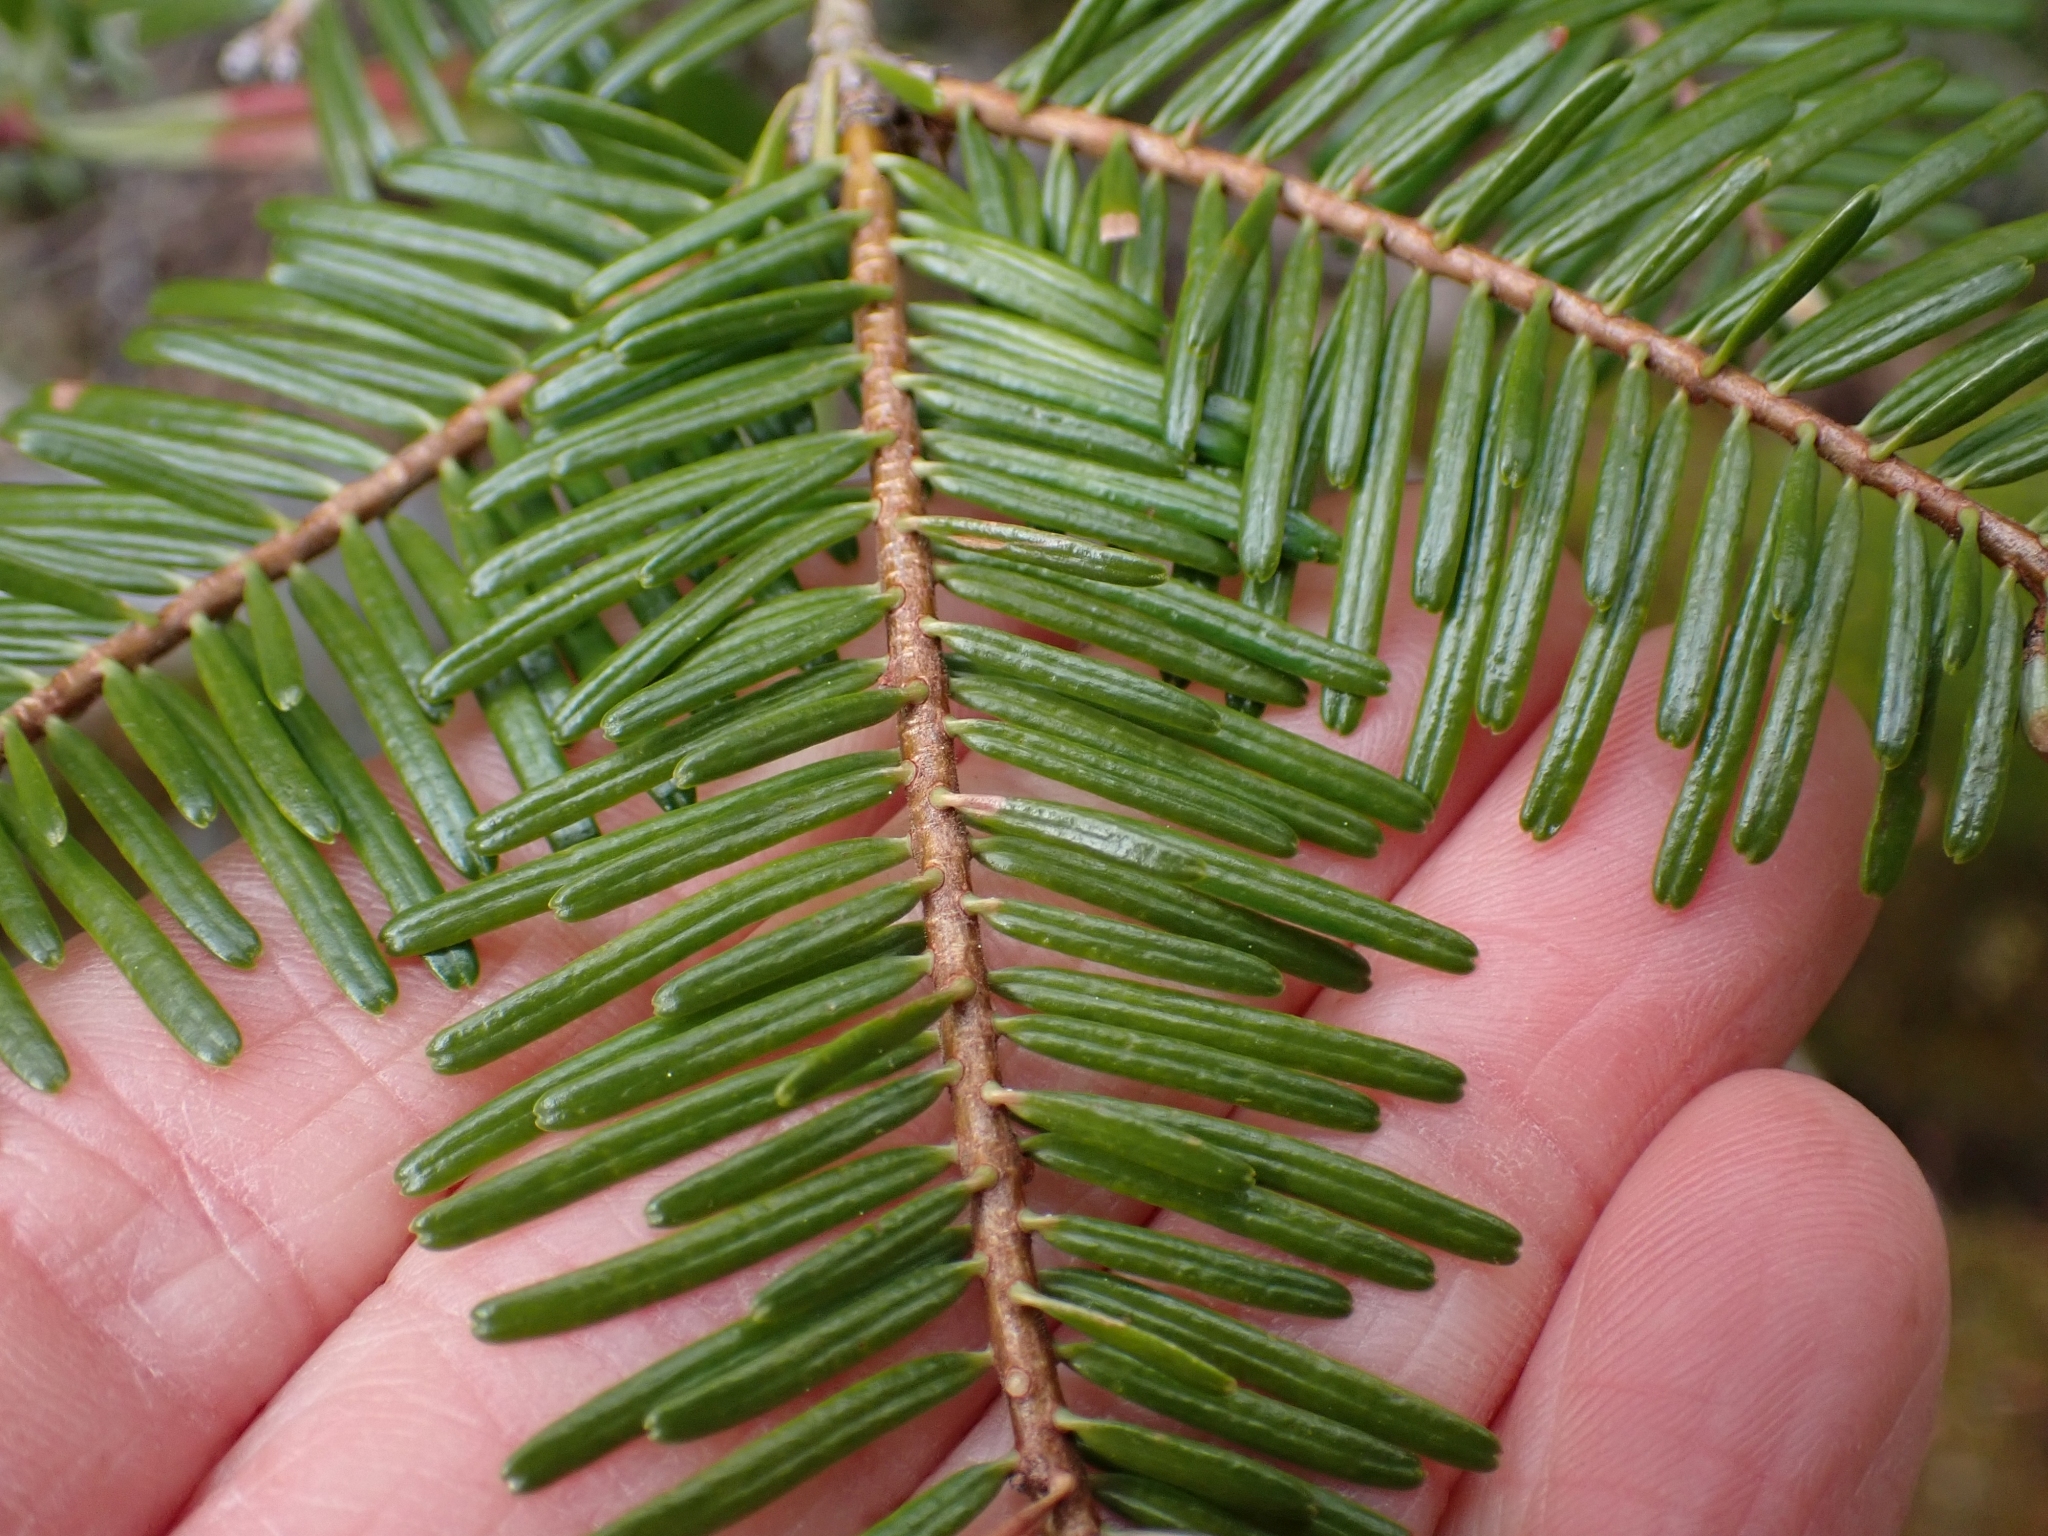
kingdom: Plantae
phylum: Tracheophyta
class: Pinopsida
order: Pinales
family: Pinaceae
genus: Abies
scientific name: Abies grandis
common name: Giant fir
